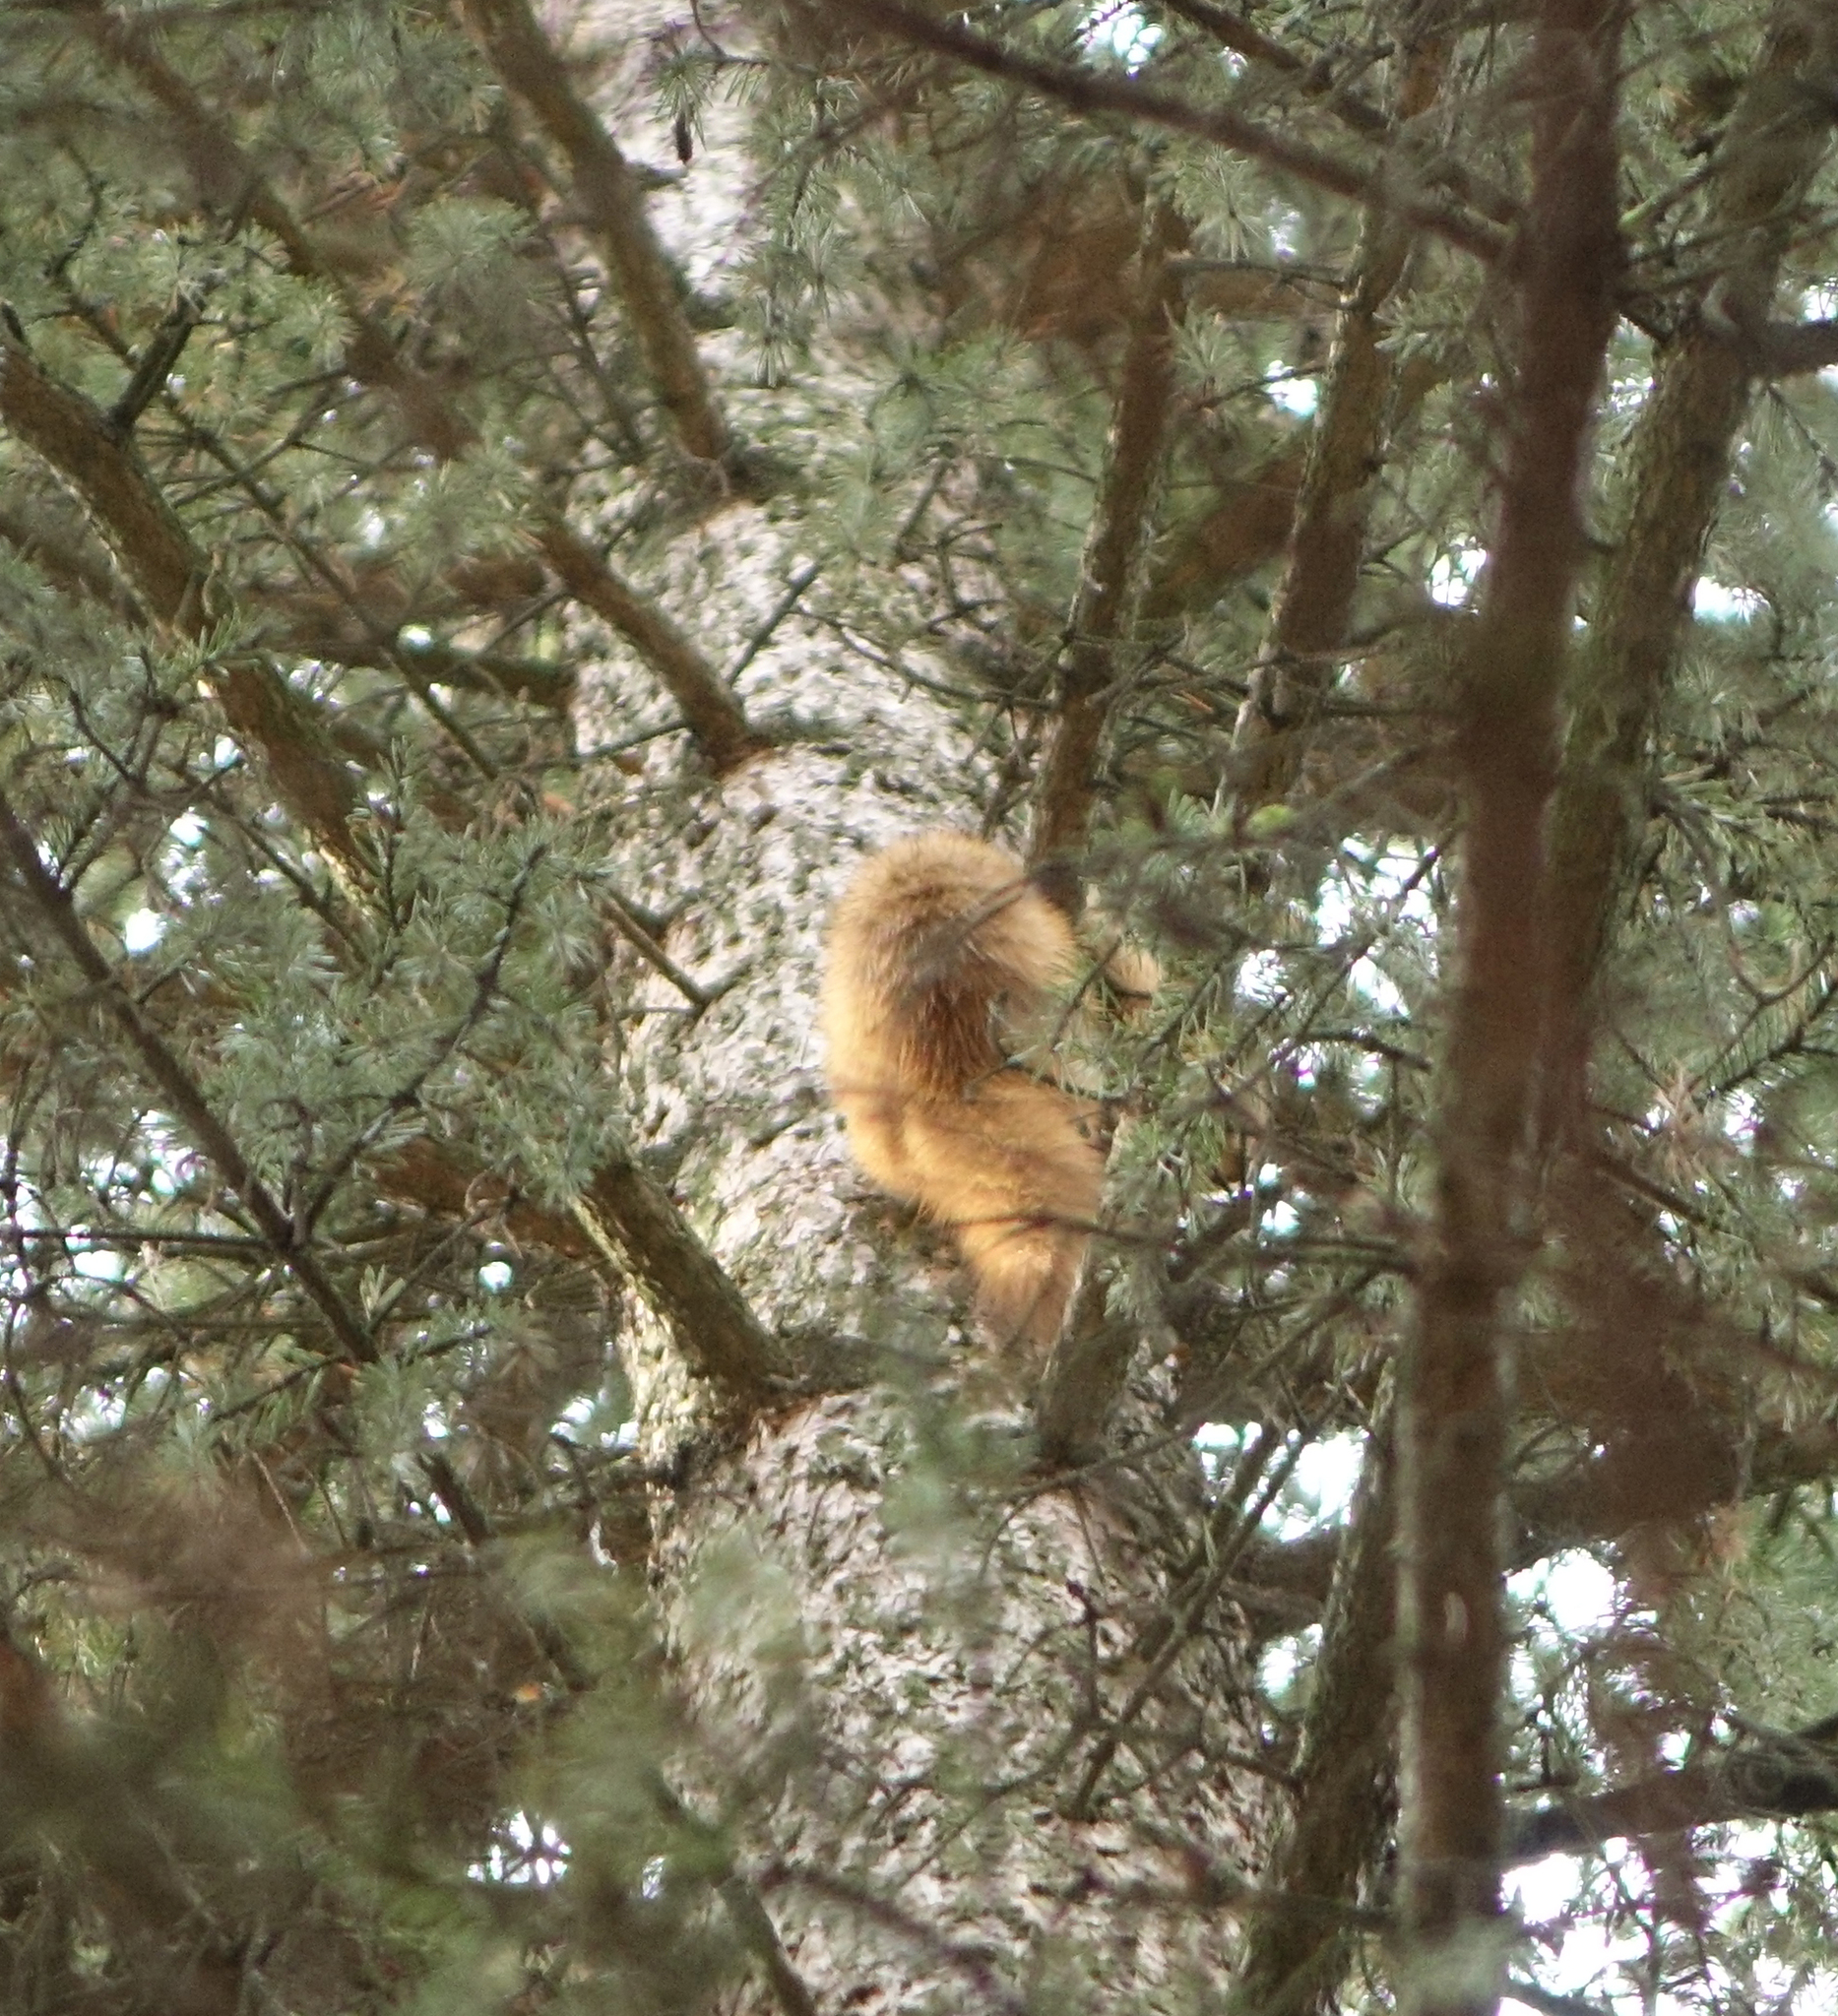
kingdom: Animalia
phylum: Chordata
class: Mammalia
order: Carnivora
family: Mustelidae
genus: Mustela
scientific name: Mustela sibirica
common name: Siberian weasel
